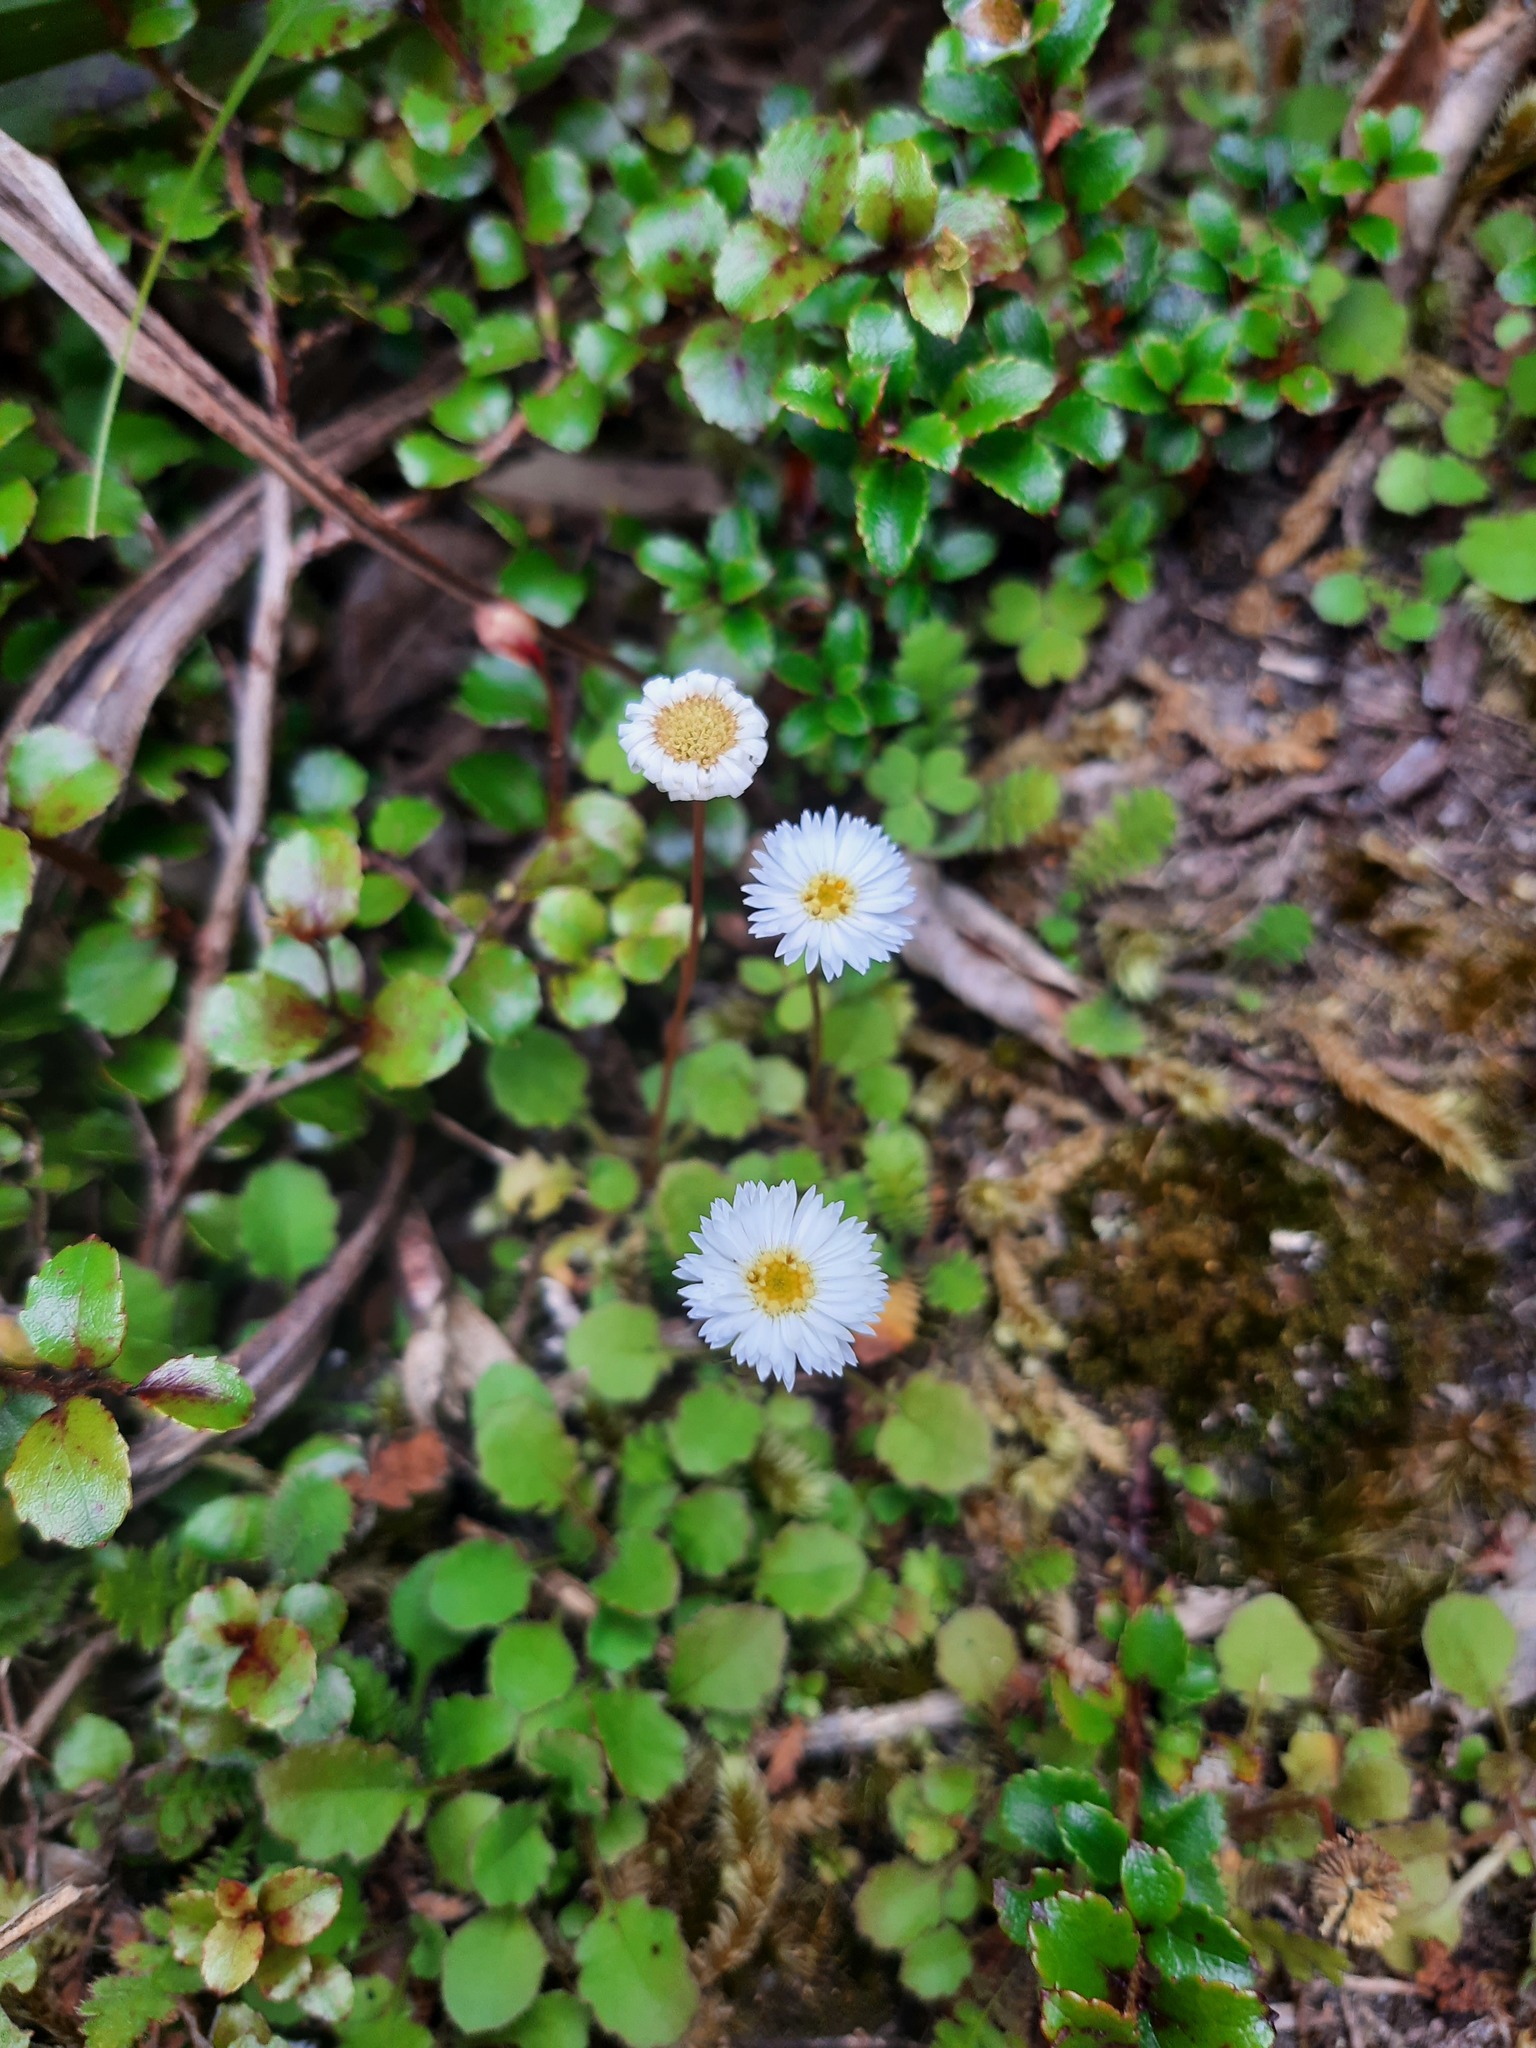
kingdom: Plantae
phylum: Tracheophyta
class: Magnoliopsida
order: Asterales
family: Asteraceae
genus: Lagenophora
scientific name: Lagenophora pumila
